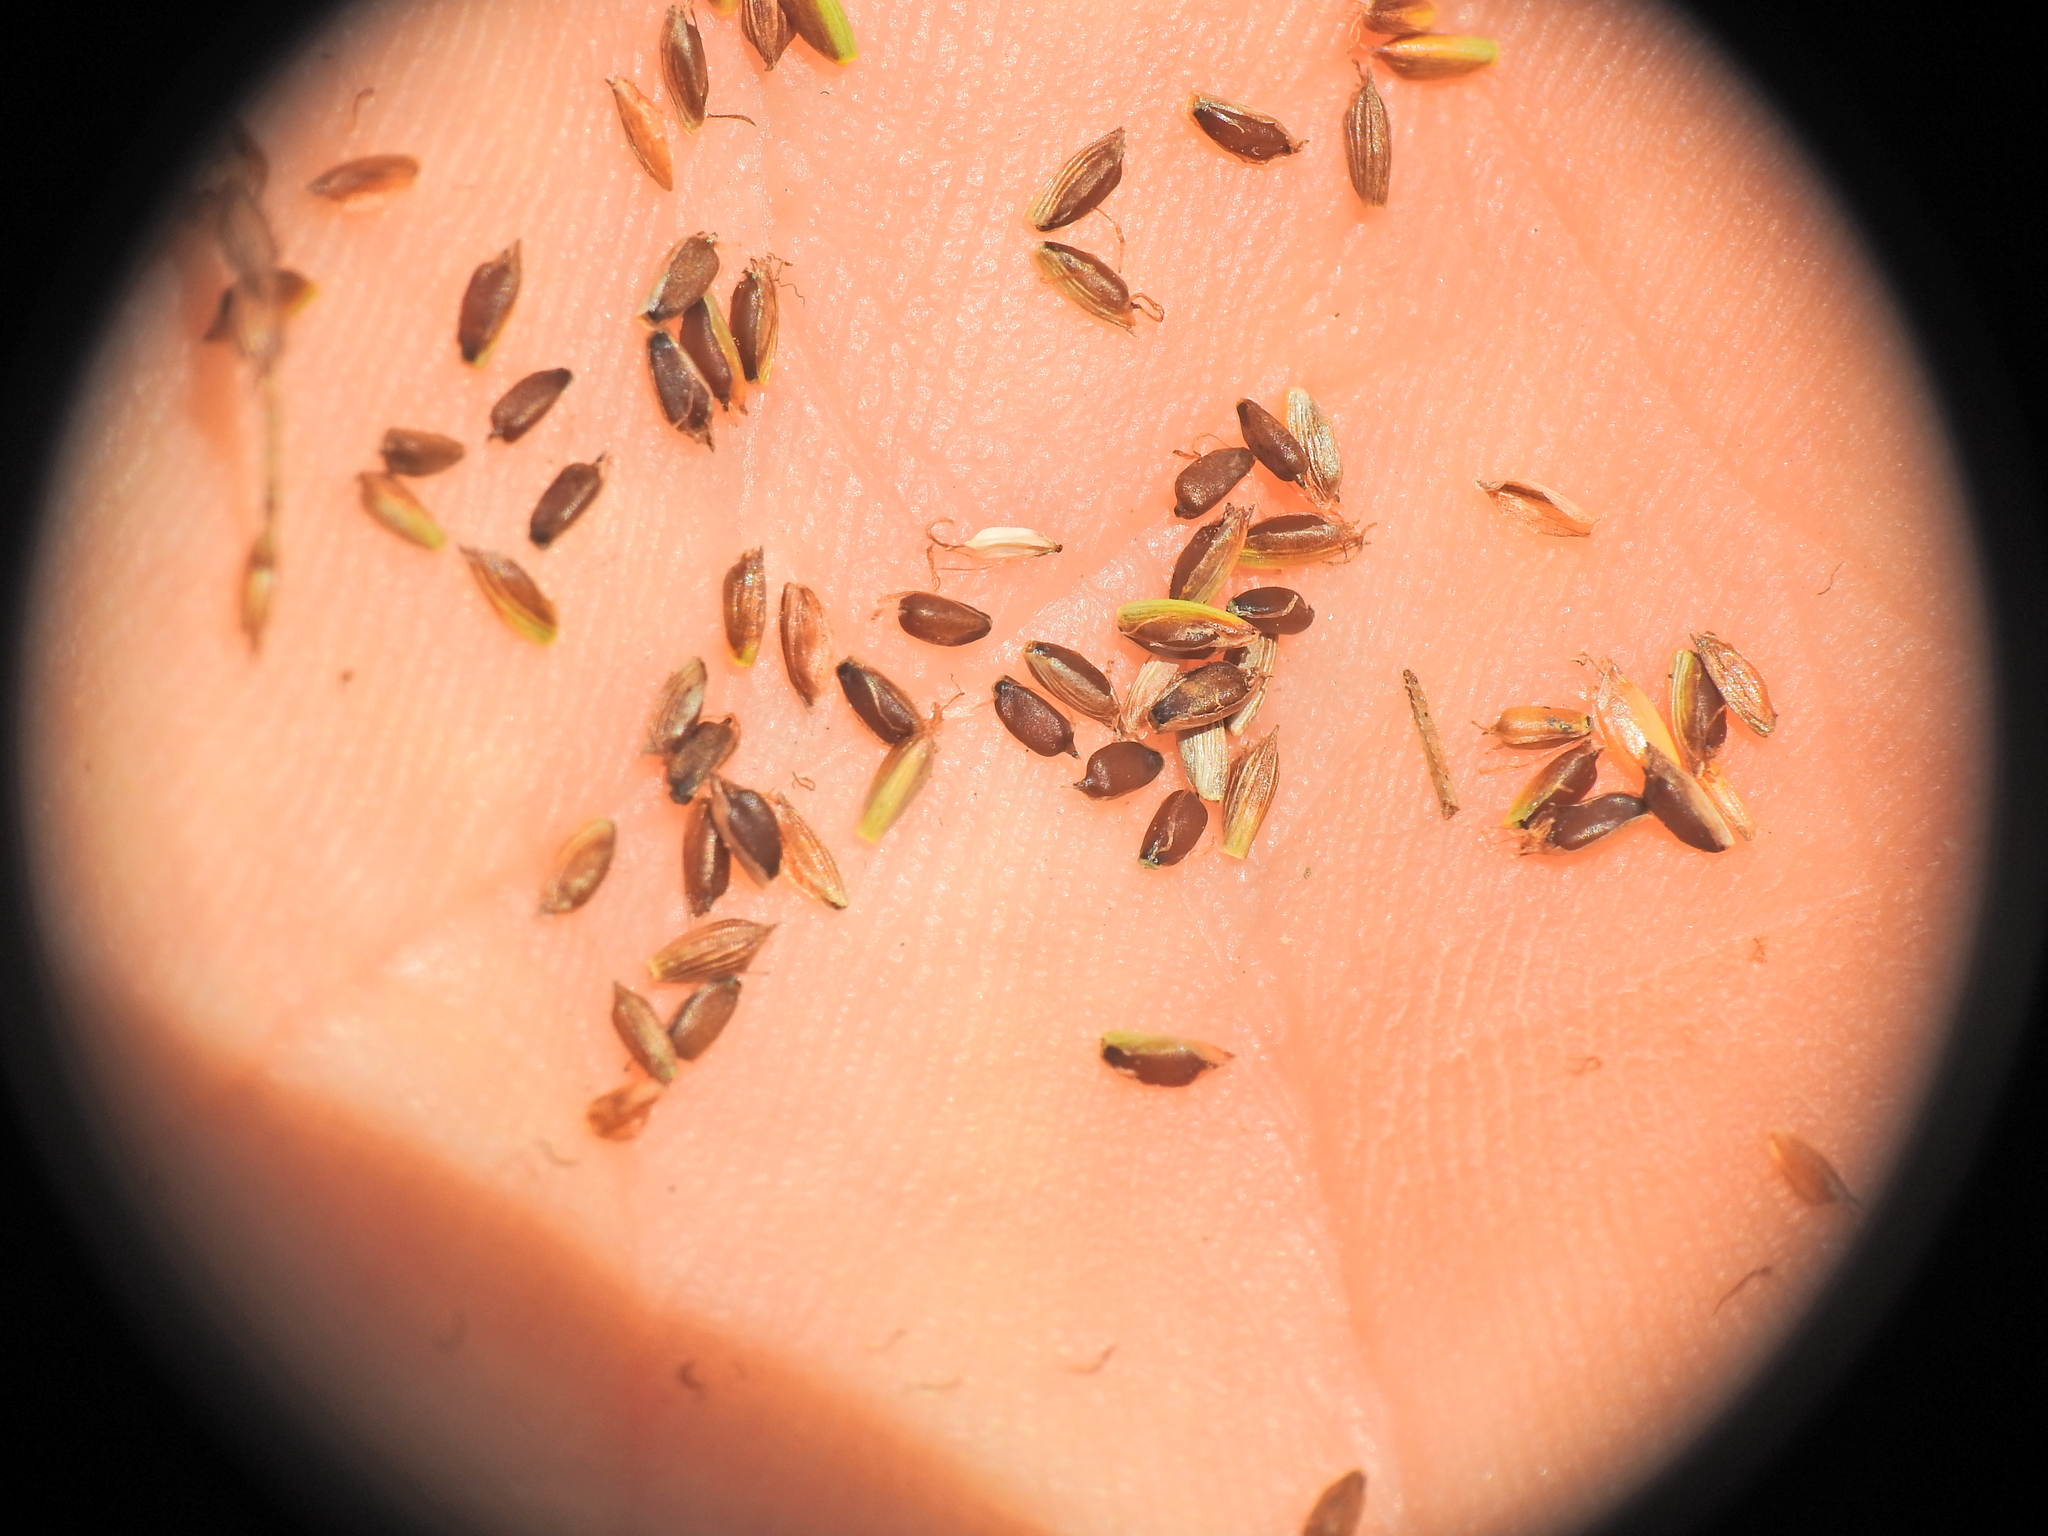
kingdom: Plantae
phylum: Tracheophyta
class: Liliopsida
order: Poales
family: Cyperaceae
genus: Cyperus
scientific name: Cyperus fulvus
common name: Sticky sedge
